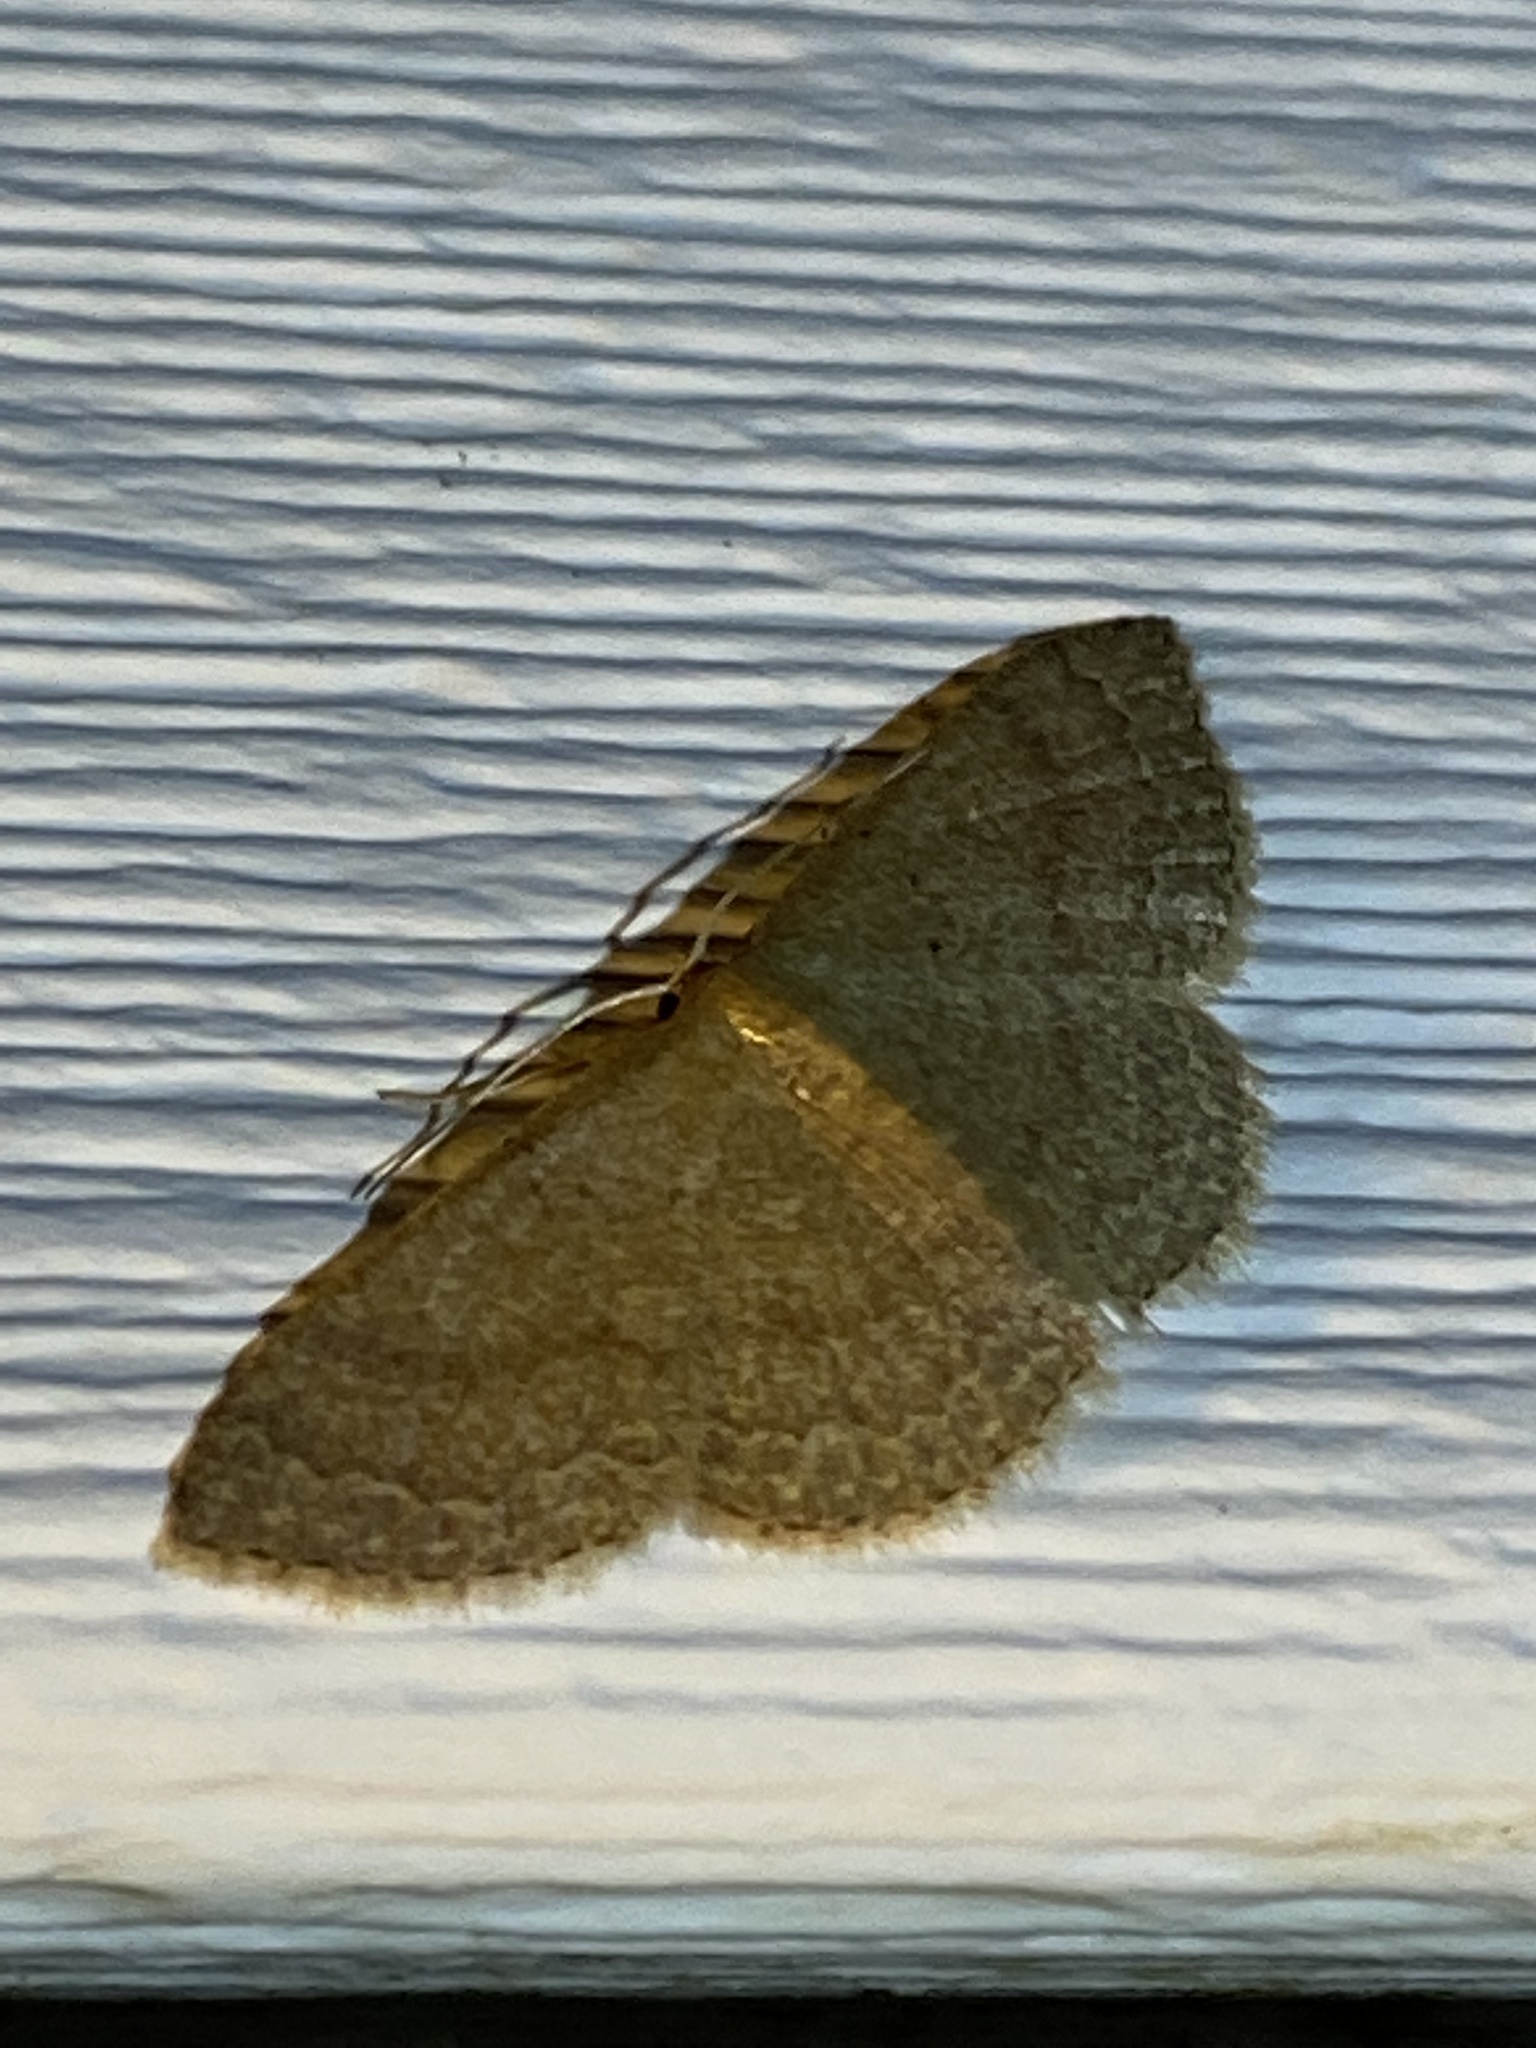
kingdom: Animalia
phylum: Arthropoda
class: Insecta
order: Lepidoptera
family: Geometridae
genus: Pleuroprucha
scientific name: Pleuroprucha insulsaria
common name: Common tan wave
